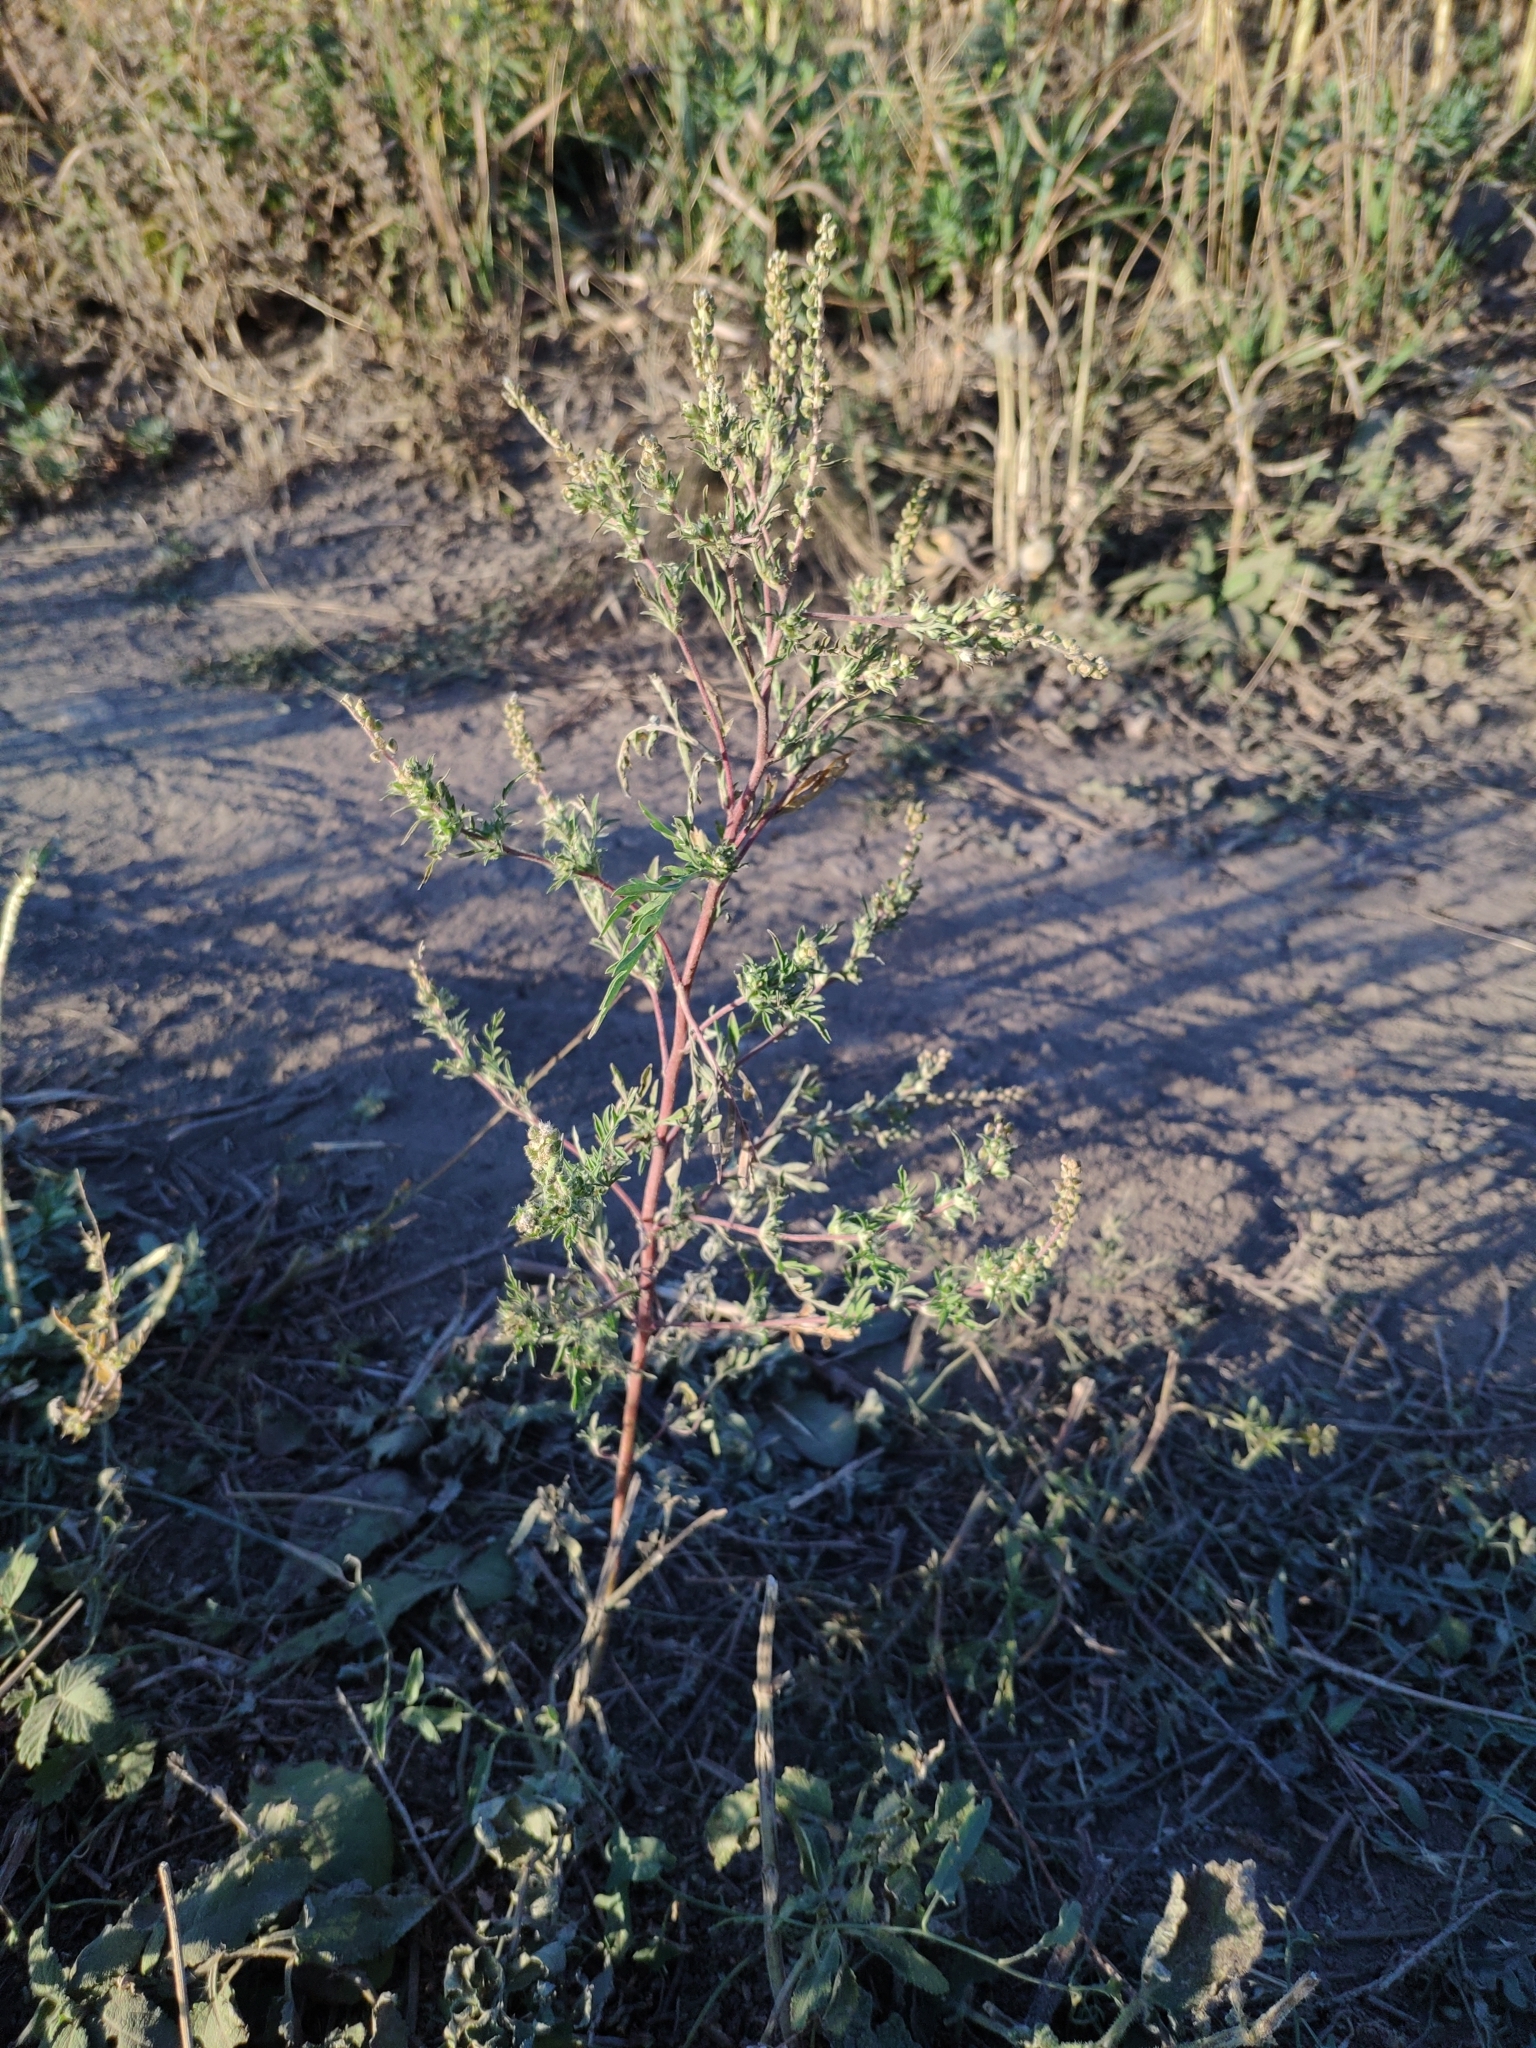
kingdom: Plantae
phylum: Tracheophyta
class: Magnoliopsida
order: Asterales
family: Asteraceae
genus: Ambrosia
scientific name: Ambrosia artemisiifolia
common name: Annual ragweed
